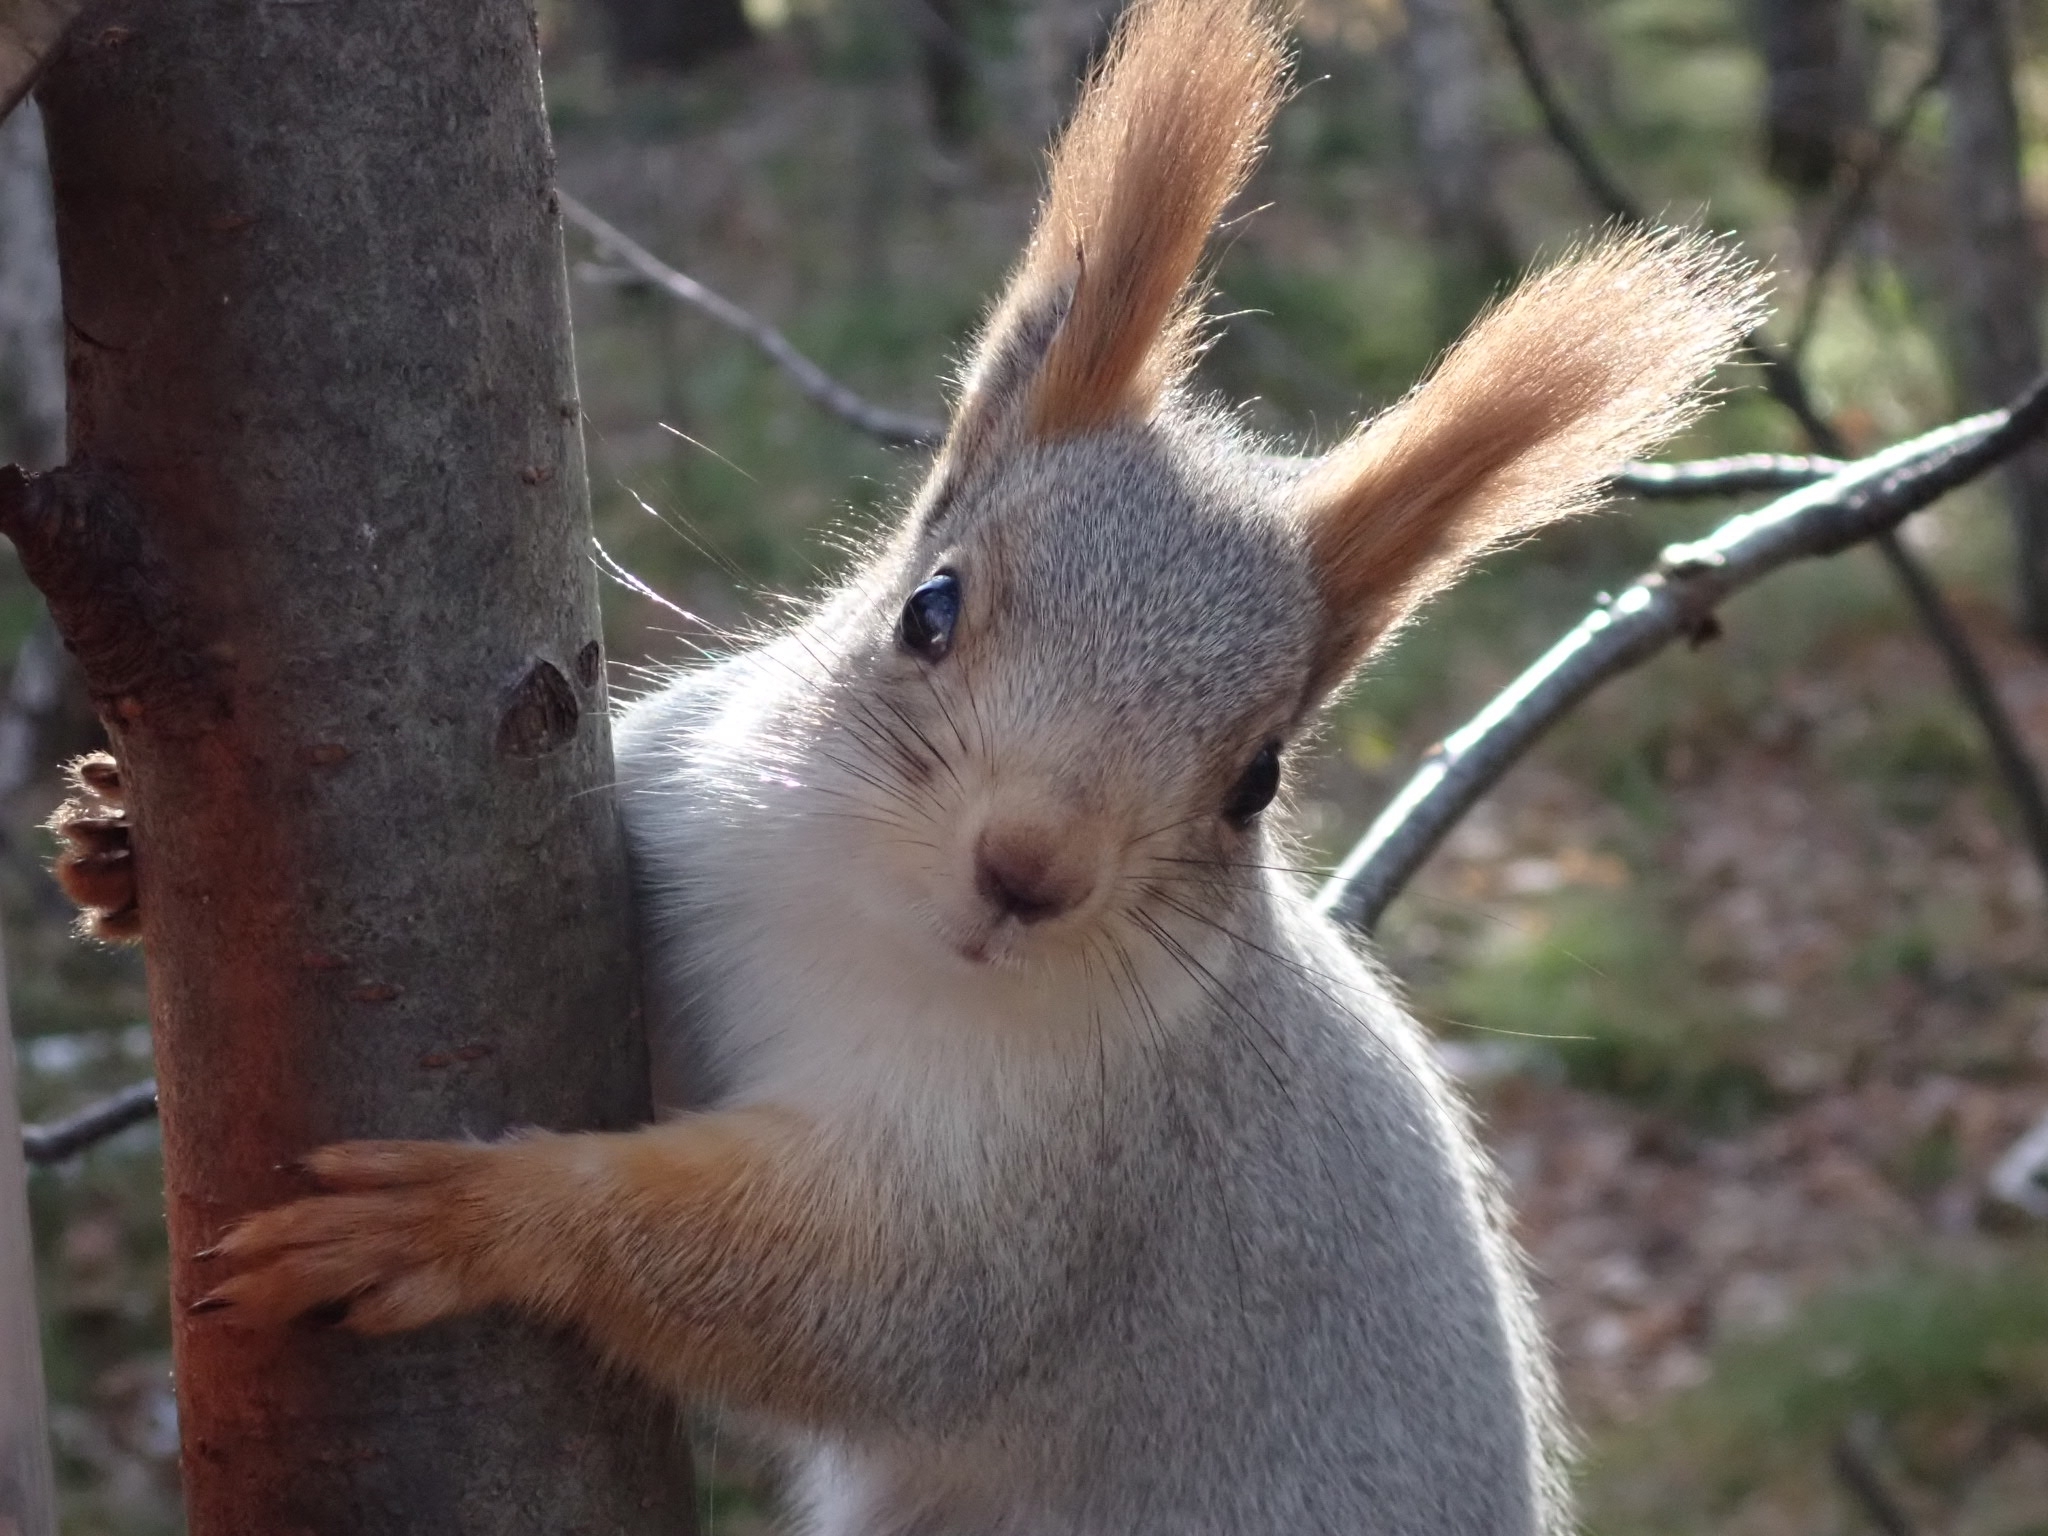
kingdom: Animalia
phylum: Chordata
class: Mammalia
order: Rodentia
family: Sciuridae
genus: Sciurus
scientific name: Sciurus vulgaris
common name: Eurasian red squirrel
